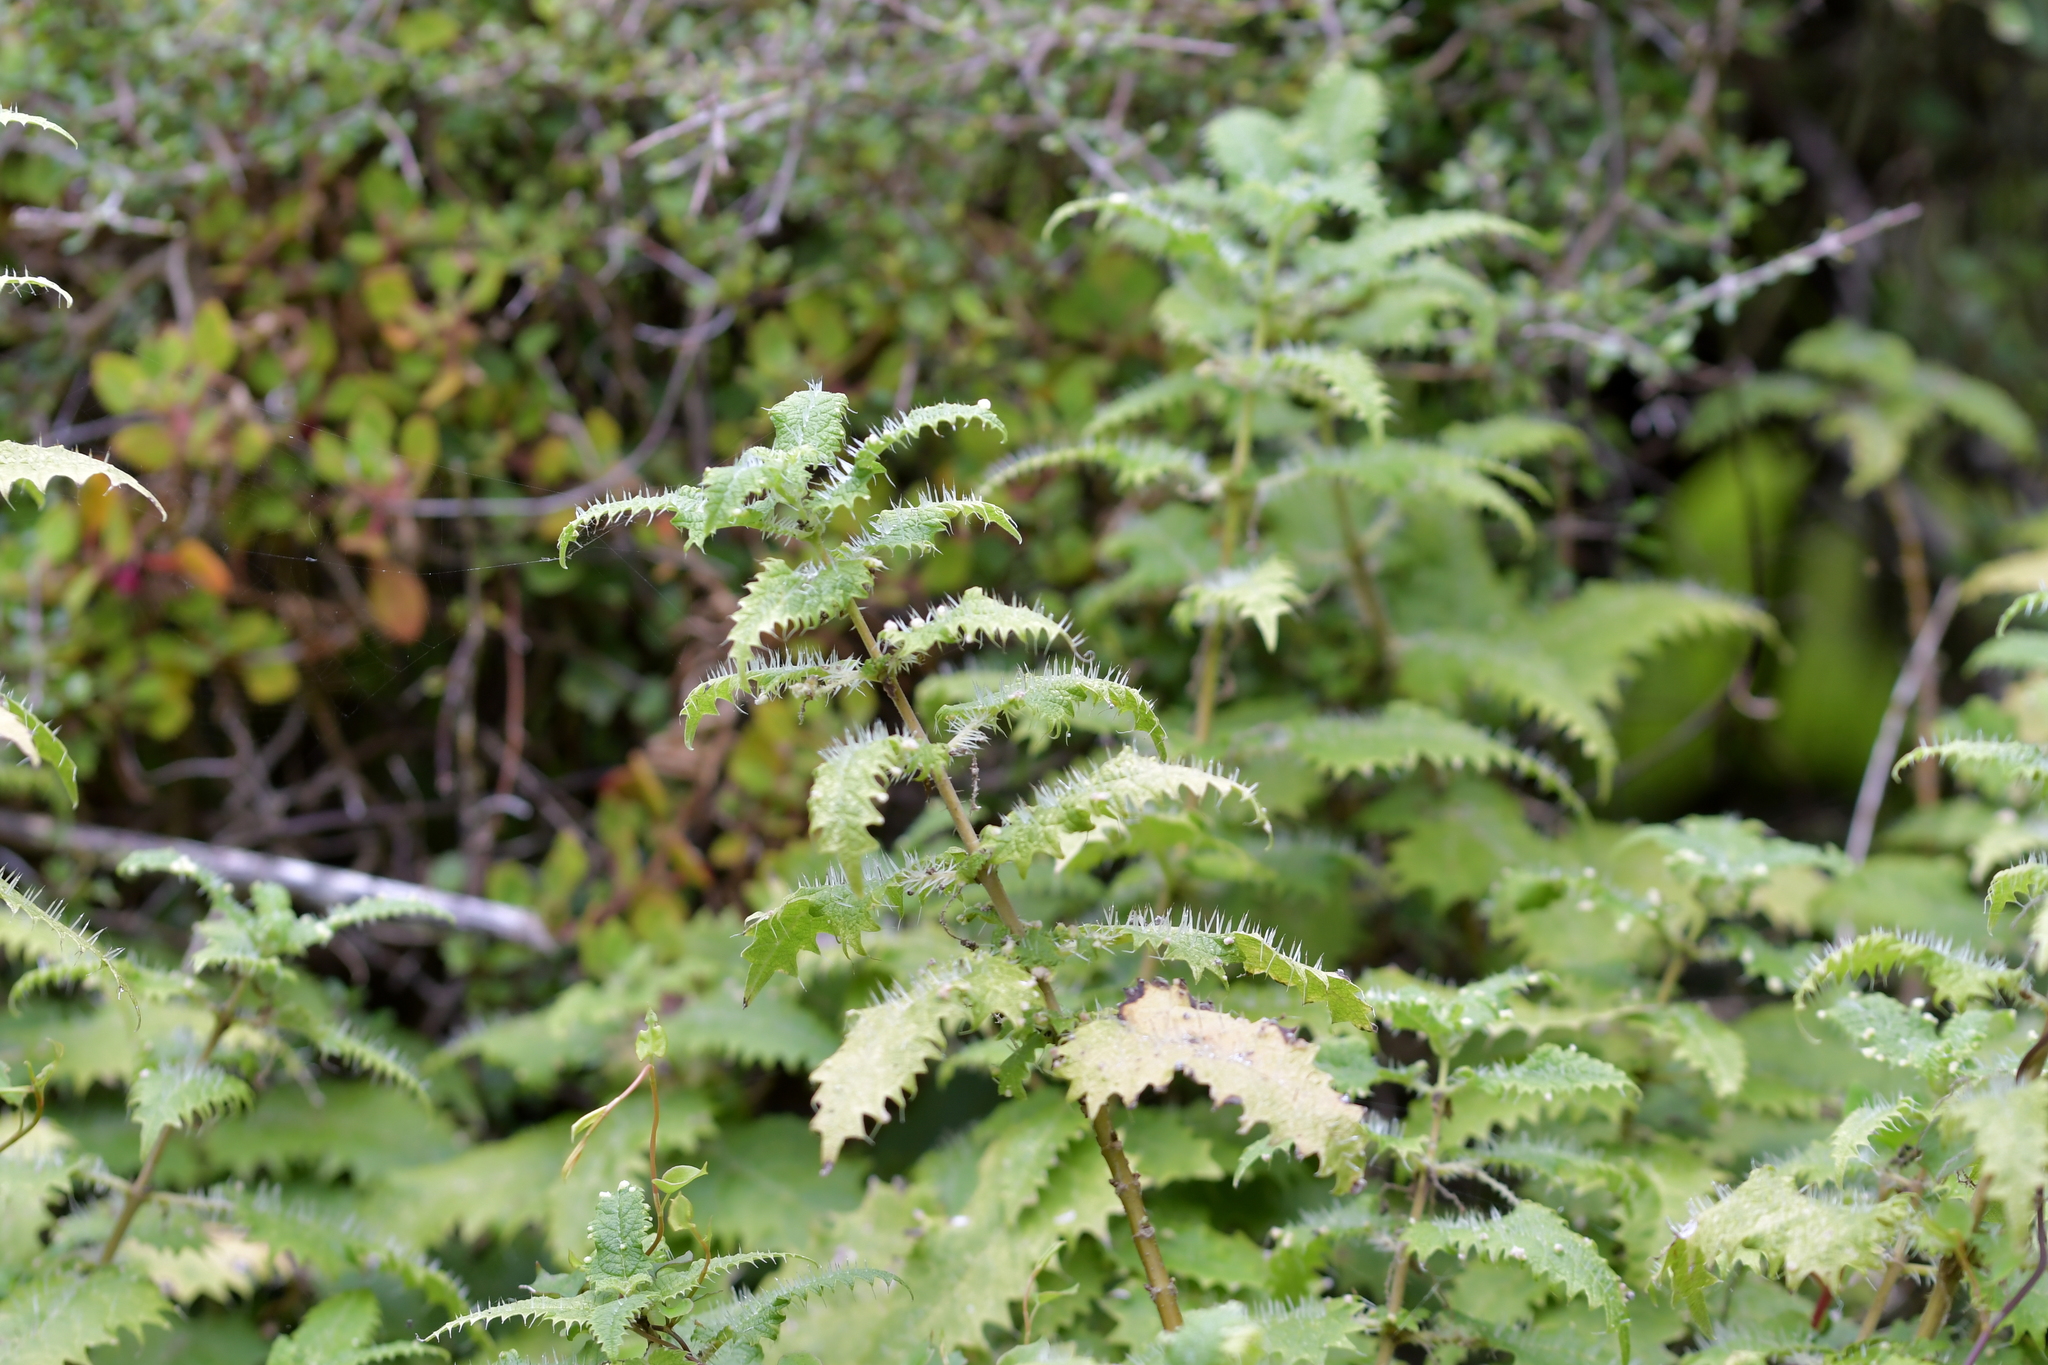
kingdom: Plantae
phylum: Tracheophyta
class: Magnoliopsida
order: Rosales
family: Urticaceae
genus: Urtica
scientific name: Urtica ferox
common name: Tree nettle
